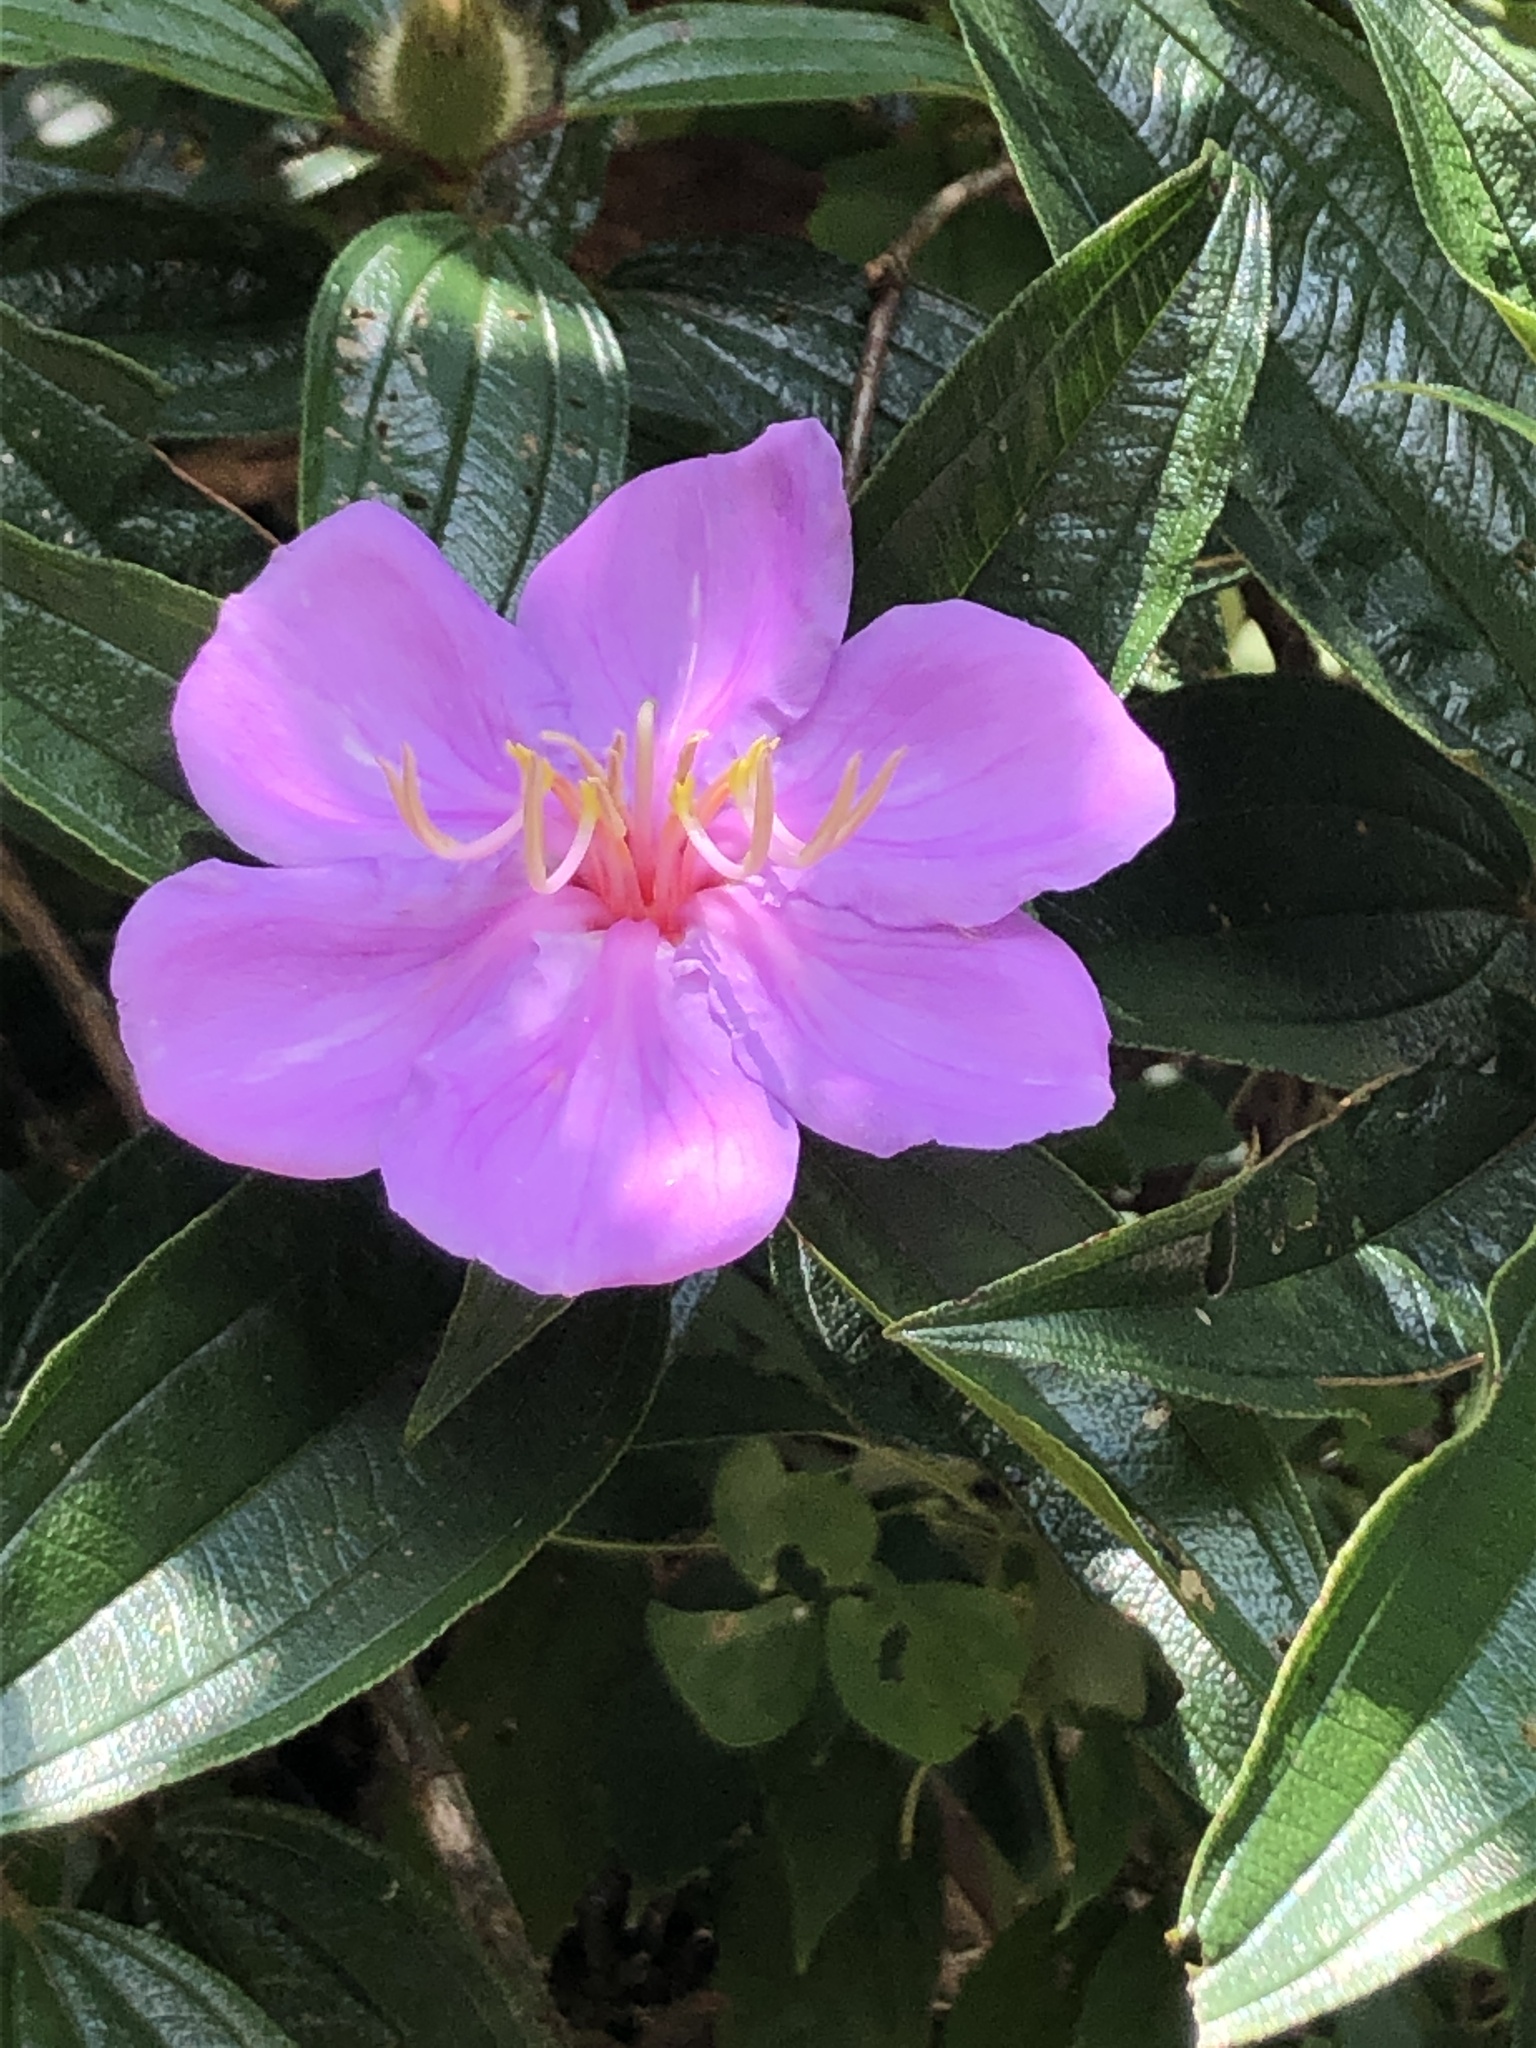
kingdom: Plantae
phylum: Tracheophyta
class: Magnoliopsida
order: Myrtales
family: Melastomataceae
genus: Melastoma
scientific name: Melastoma sanguineum
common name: Red melastome
